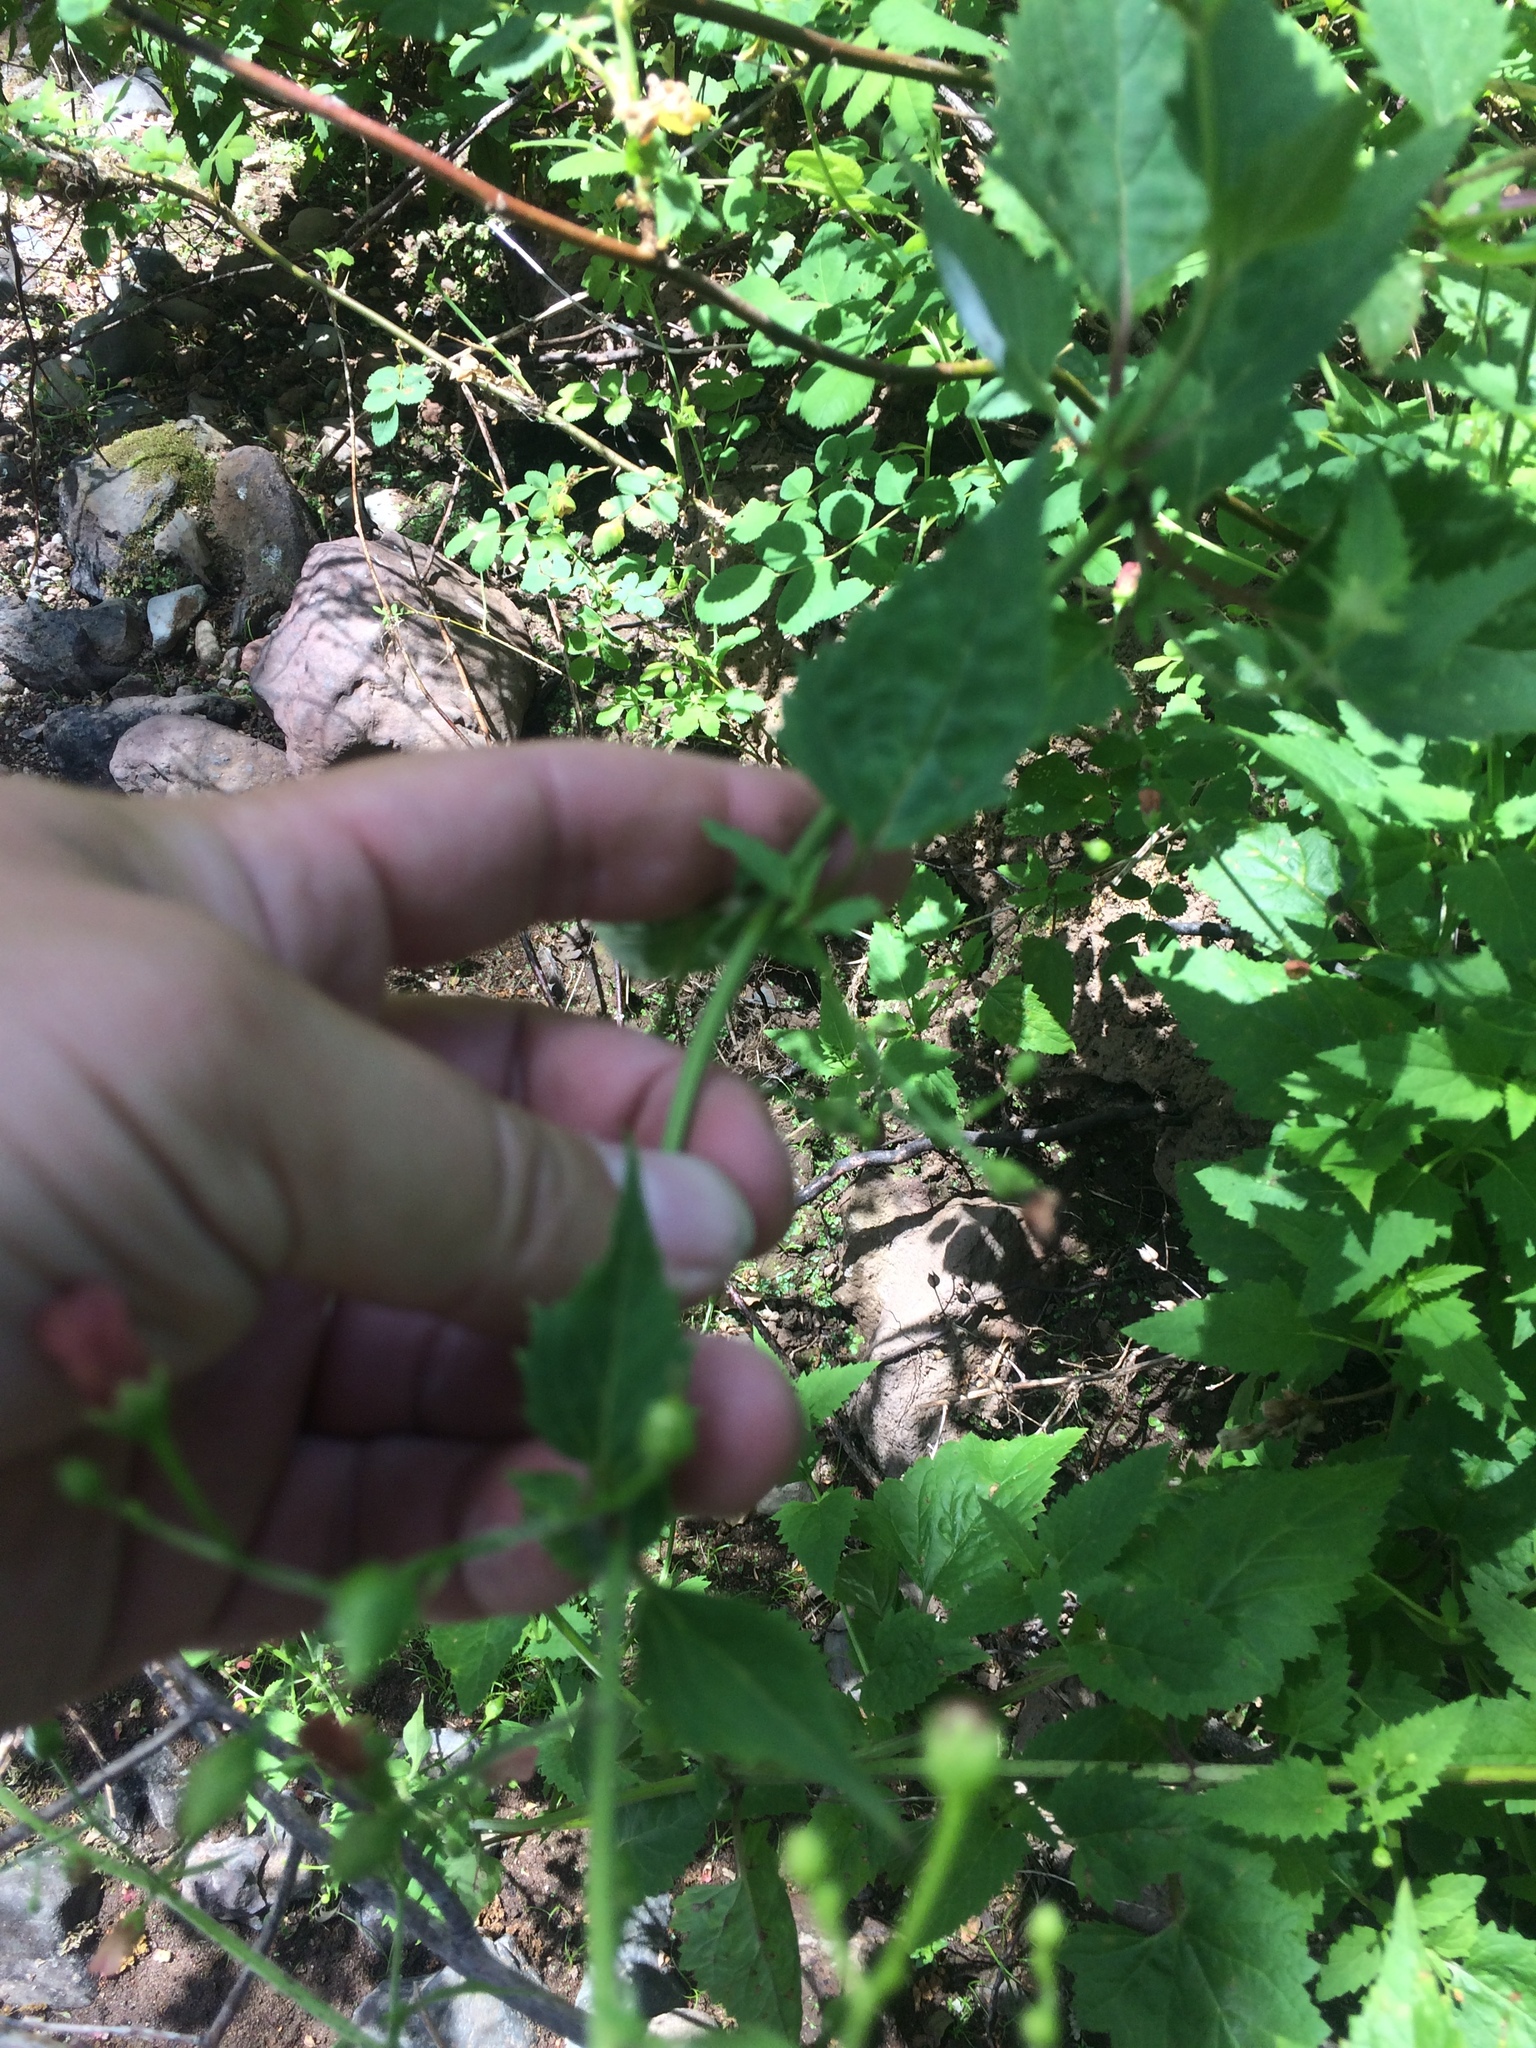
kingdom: Plantae
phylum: Tracheophyta
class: Magnoliopsida
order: Lamiales
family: Scrophulariaceae
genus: Scrophularia
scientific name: Scrophularia californica
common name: California figwort
